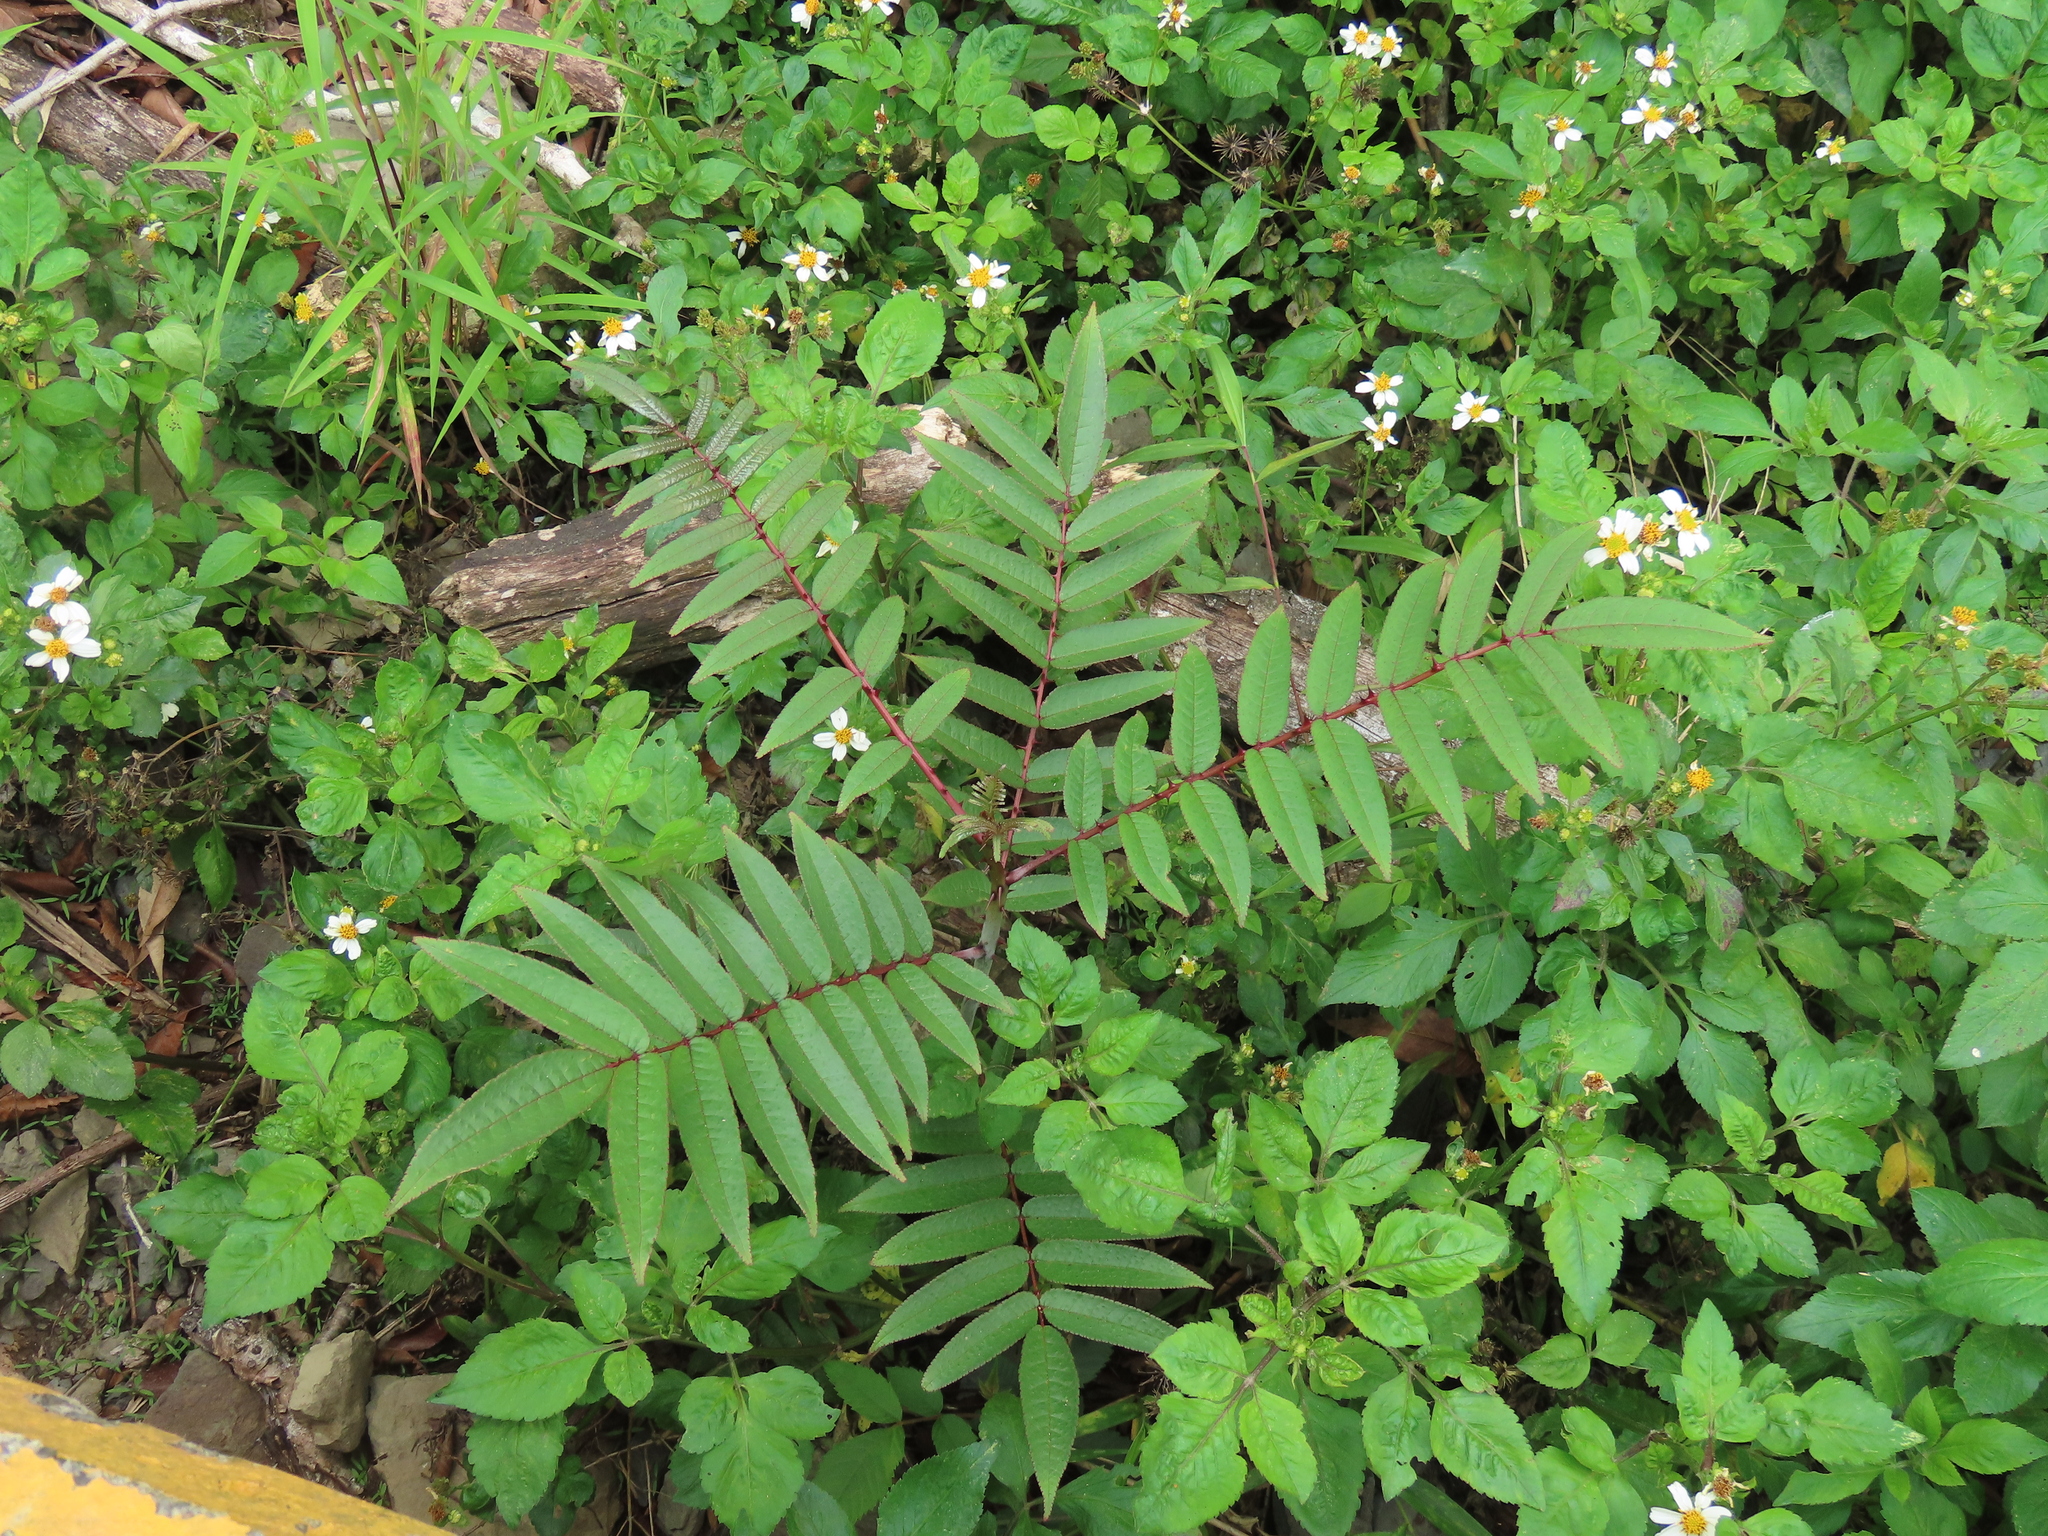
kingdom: Plantae
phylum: Tracheophyta
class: Magnoliopsida
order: Sapindales
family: Rutaceae
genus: Zanthoxylum
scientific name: Zanthoxylum ailanthoides
